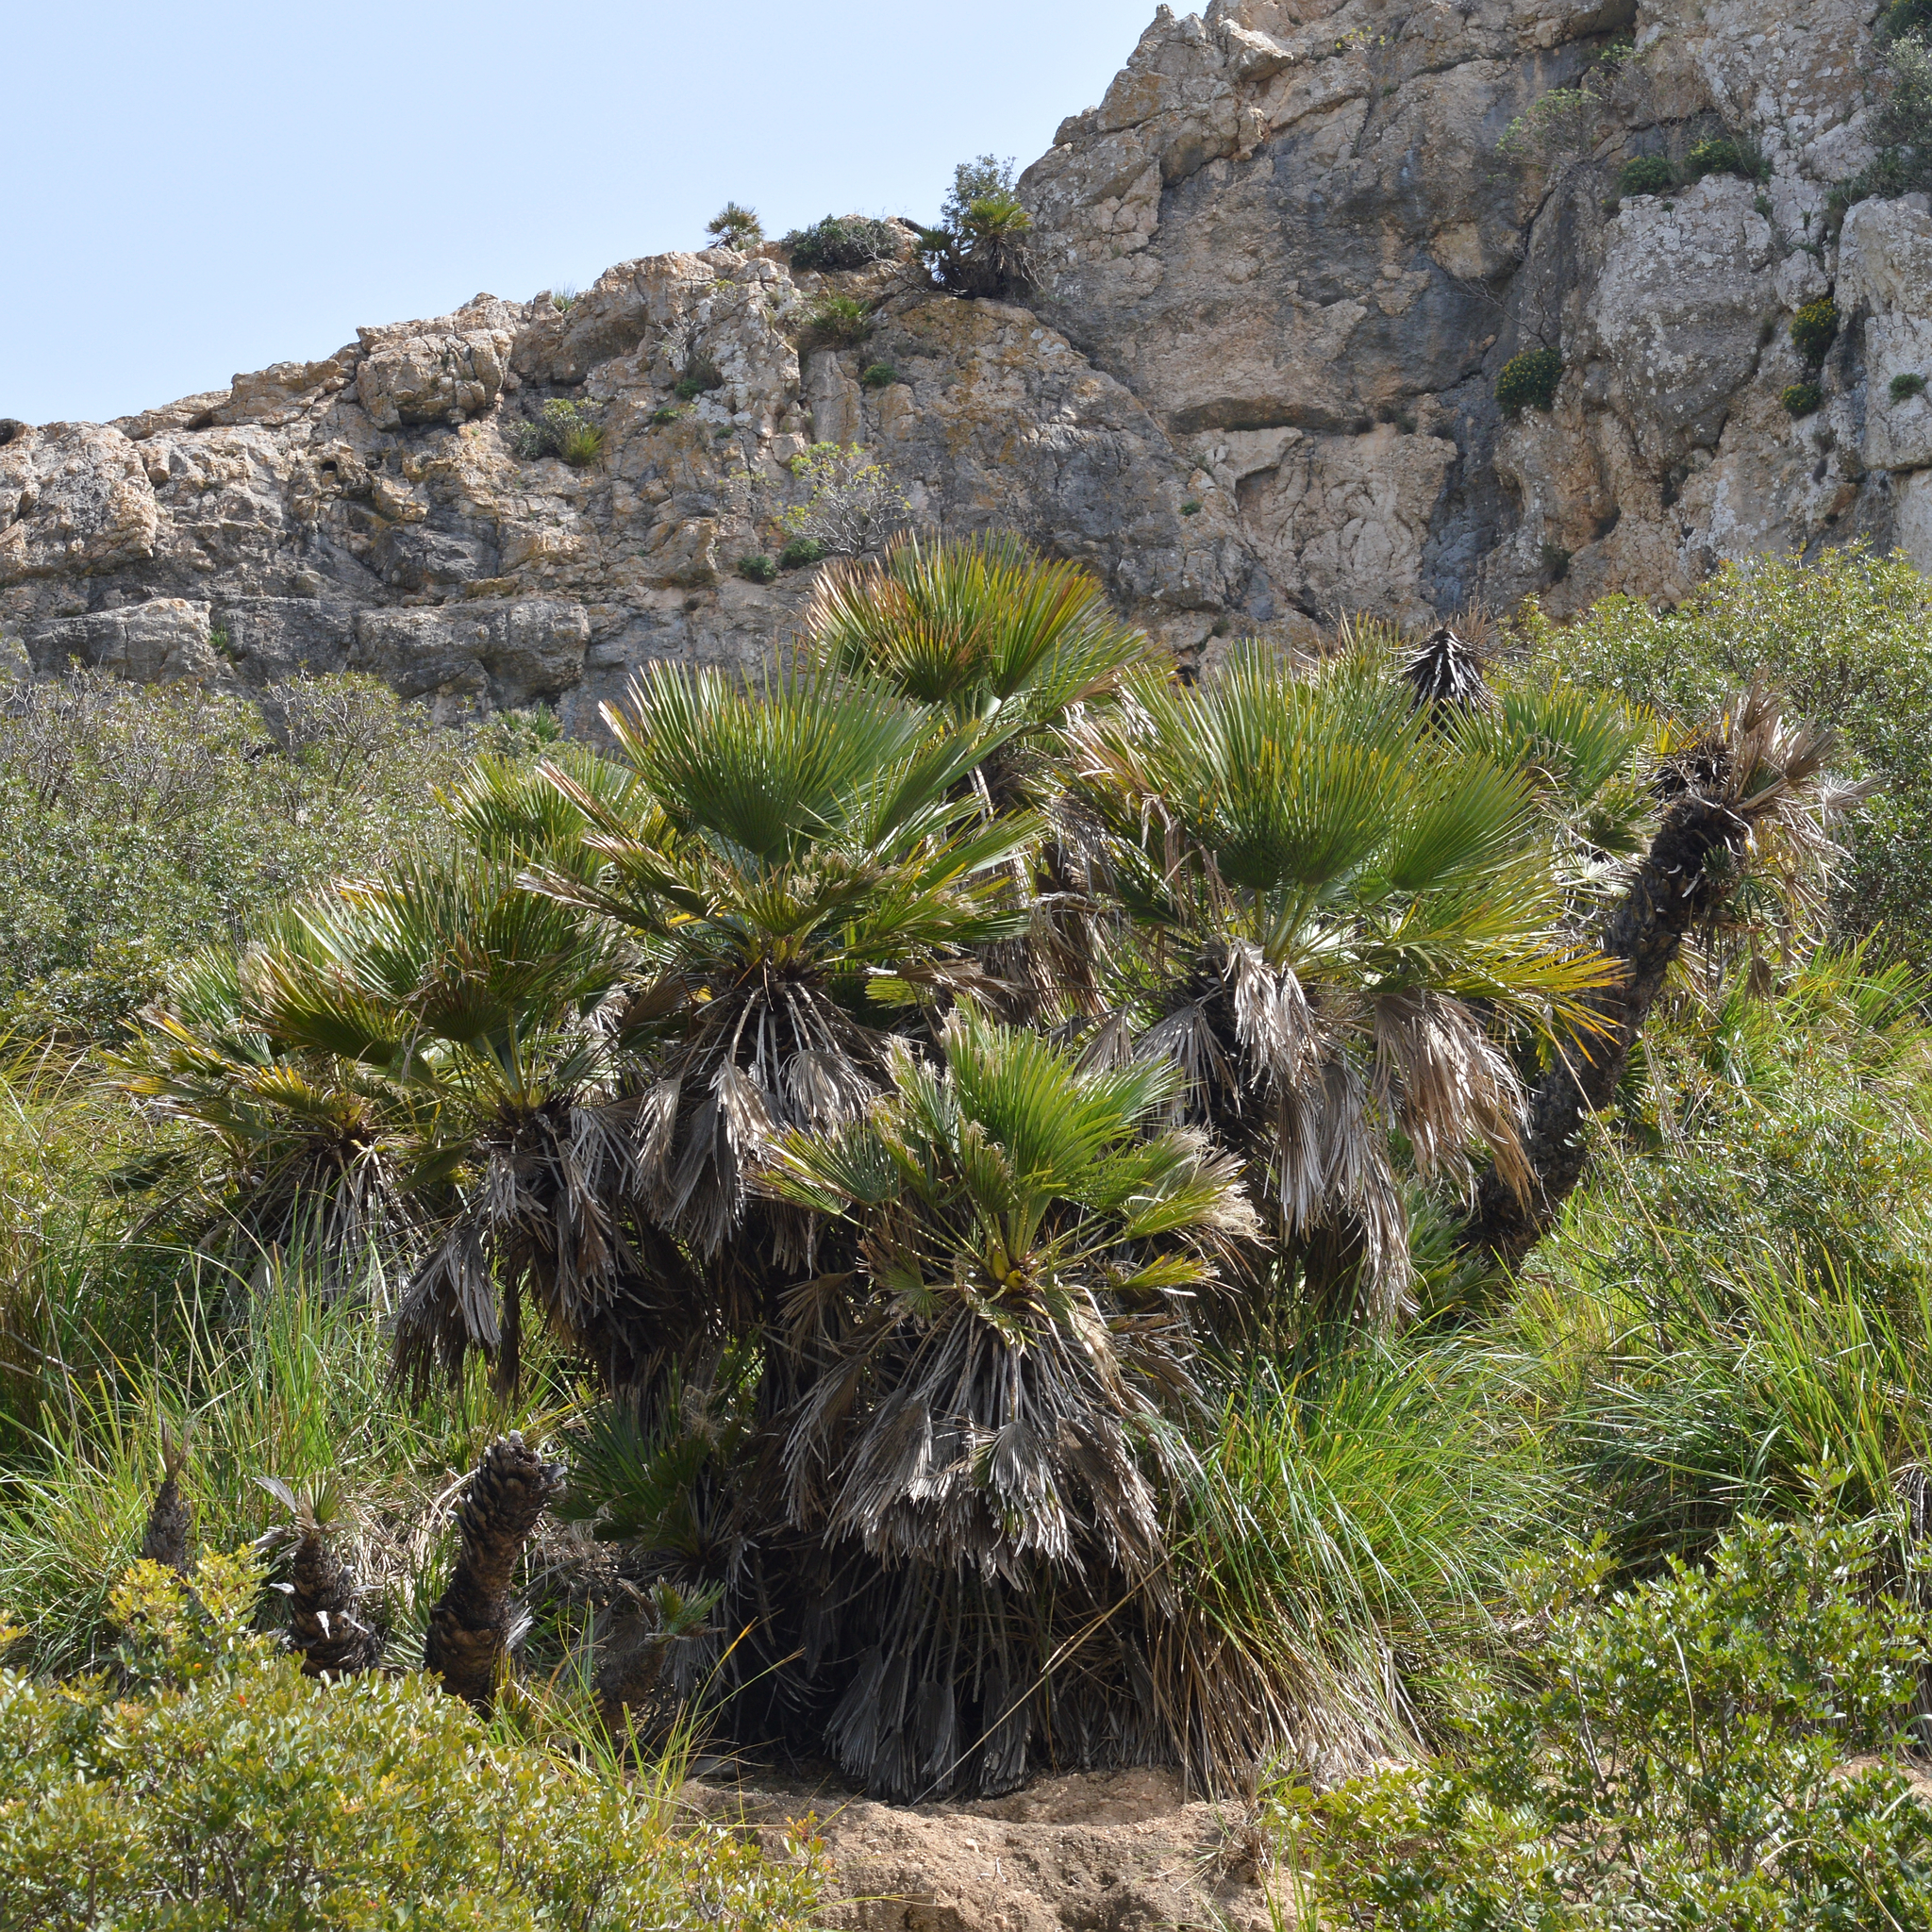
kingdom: Plantae
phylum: Tracheophyta
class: Liliopsida
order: Arecales
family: Arecaceae
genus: Chamaerops
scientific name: Chamaerops humilis
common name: Dwarf fan palm
